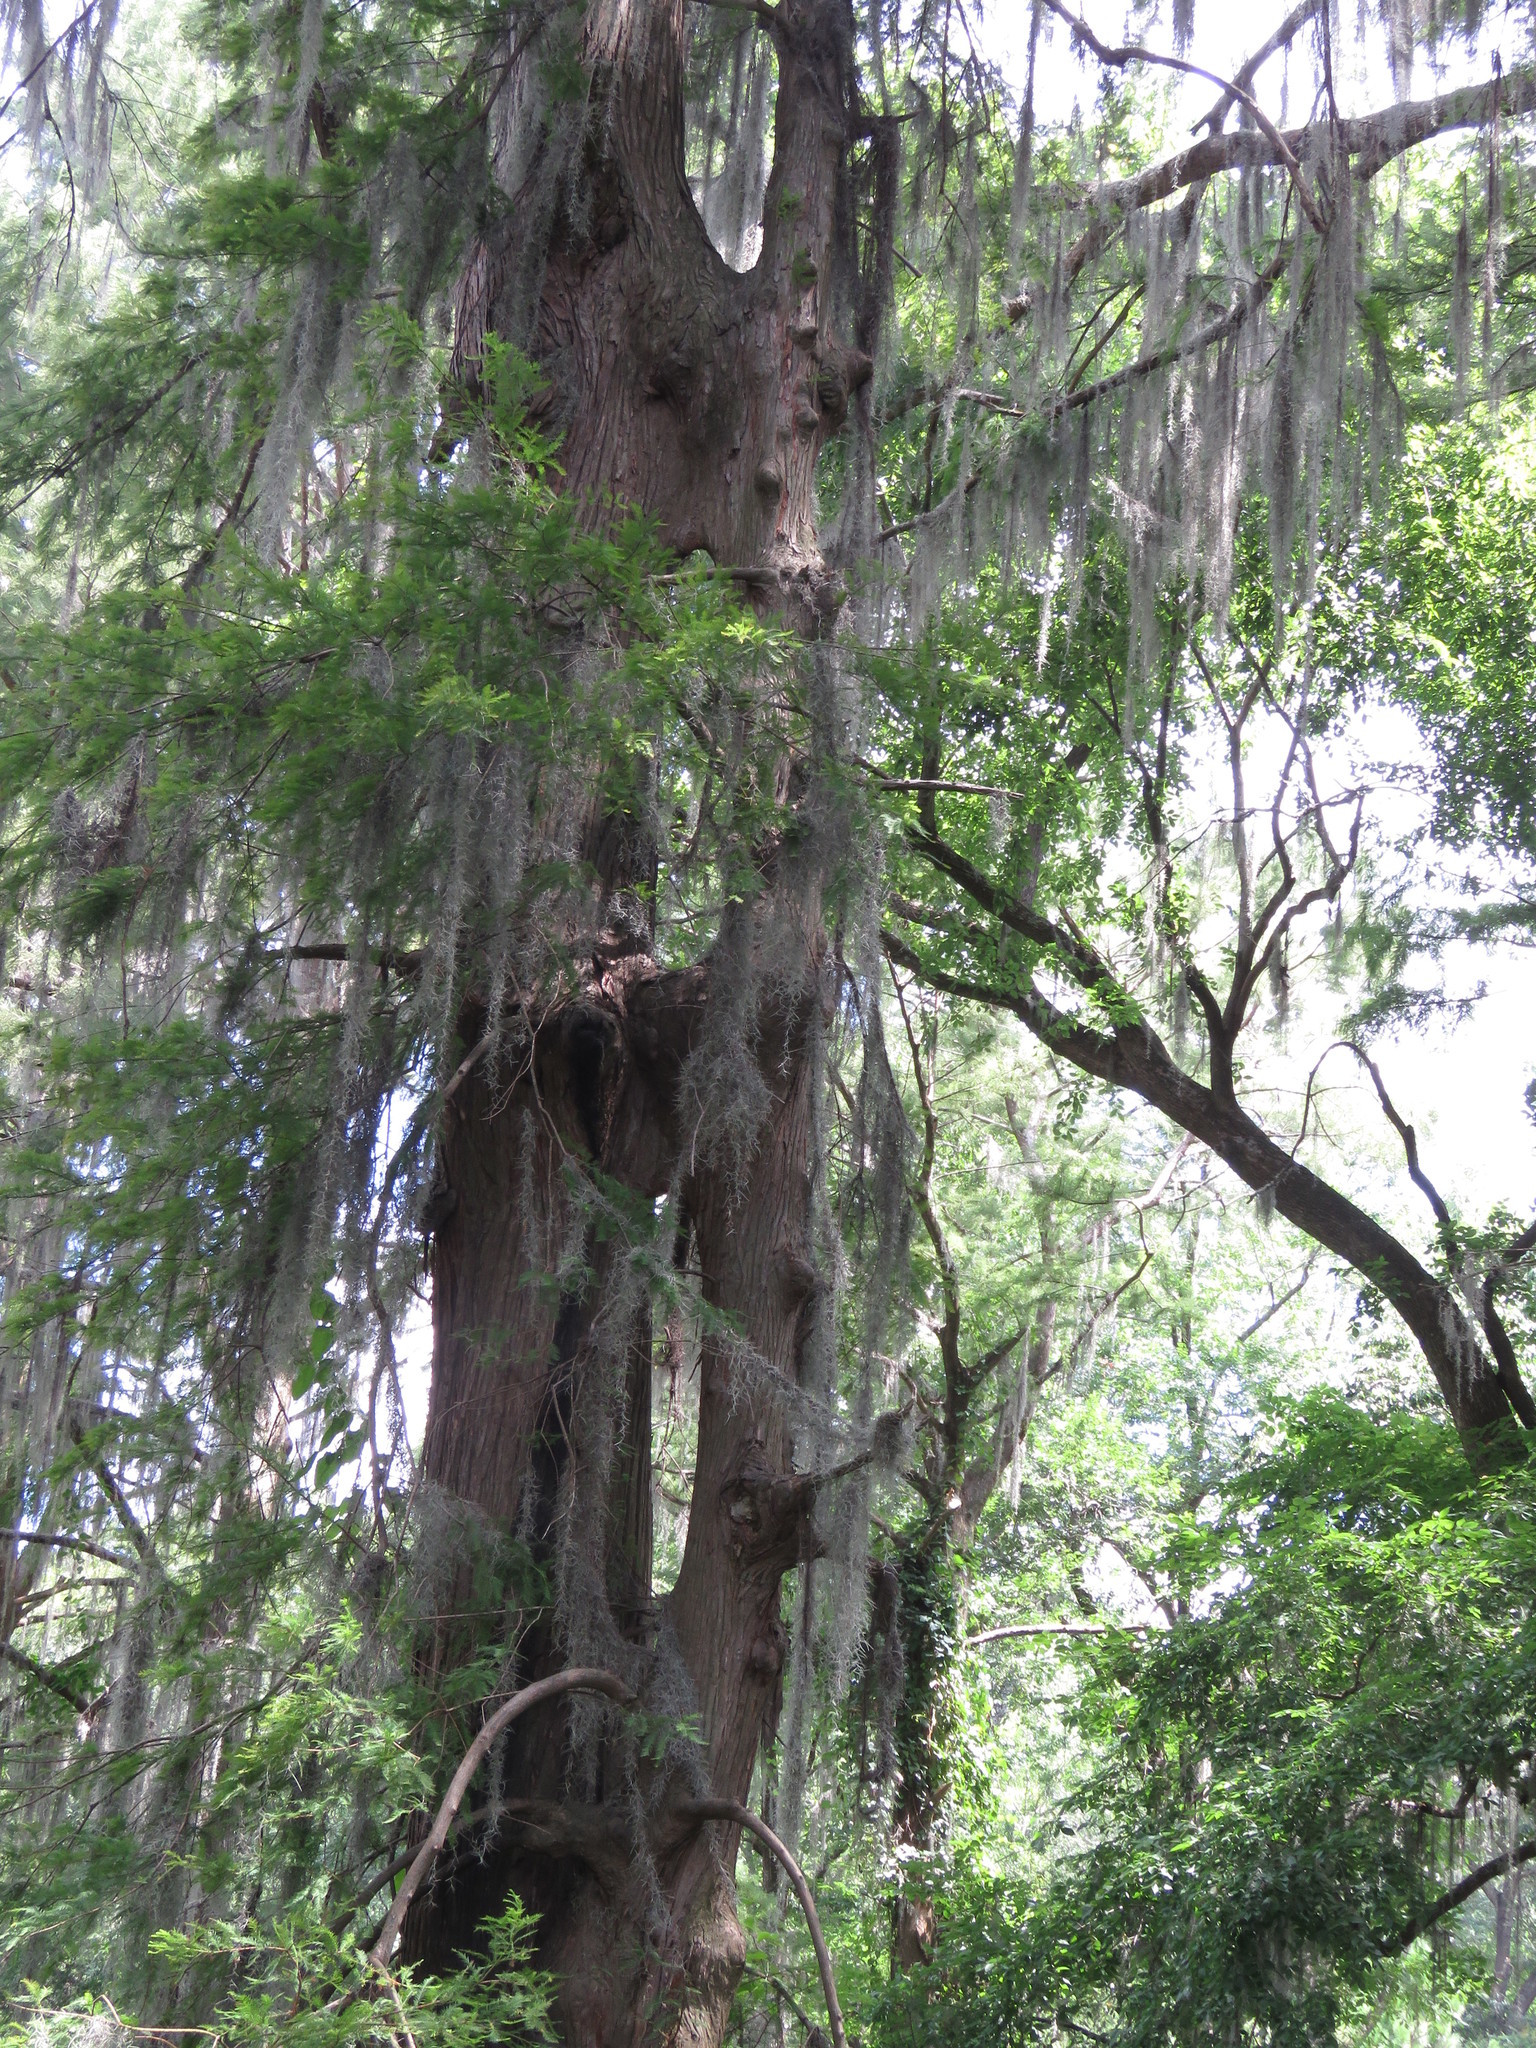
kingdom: Plantae
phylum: Tracheophyta
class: Liliopsida
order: Poales
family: Bromeliaceae
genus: Tillandsia
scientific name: Tillandsia usneoides
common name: Spanish moss
